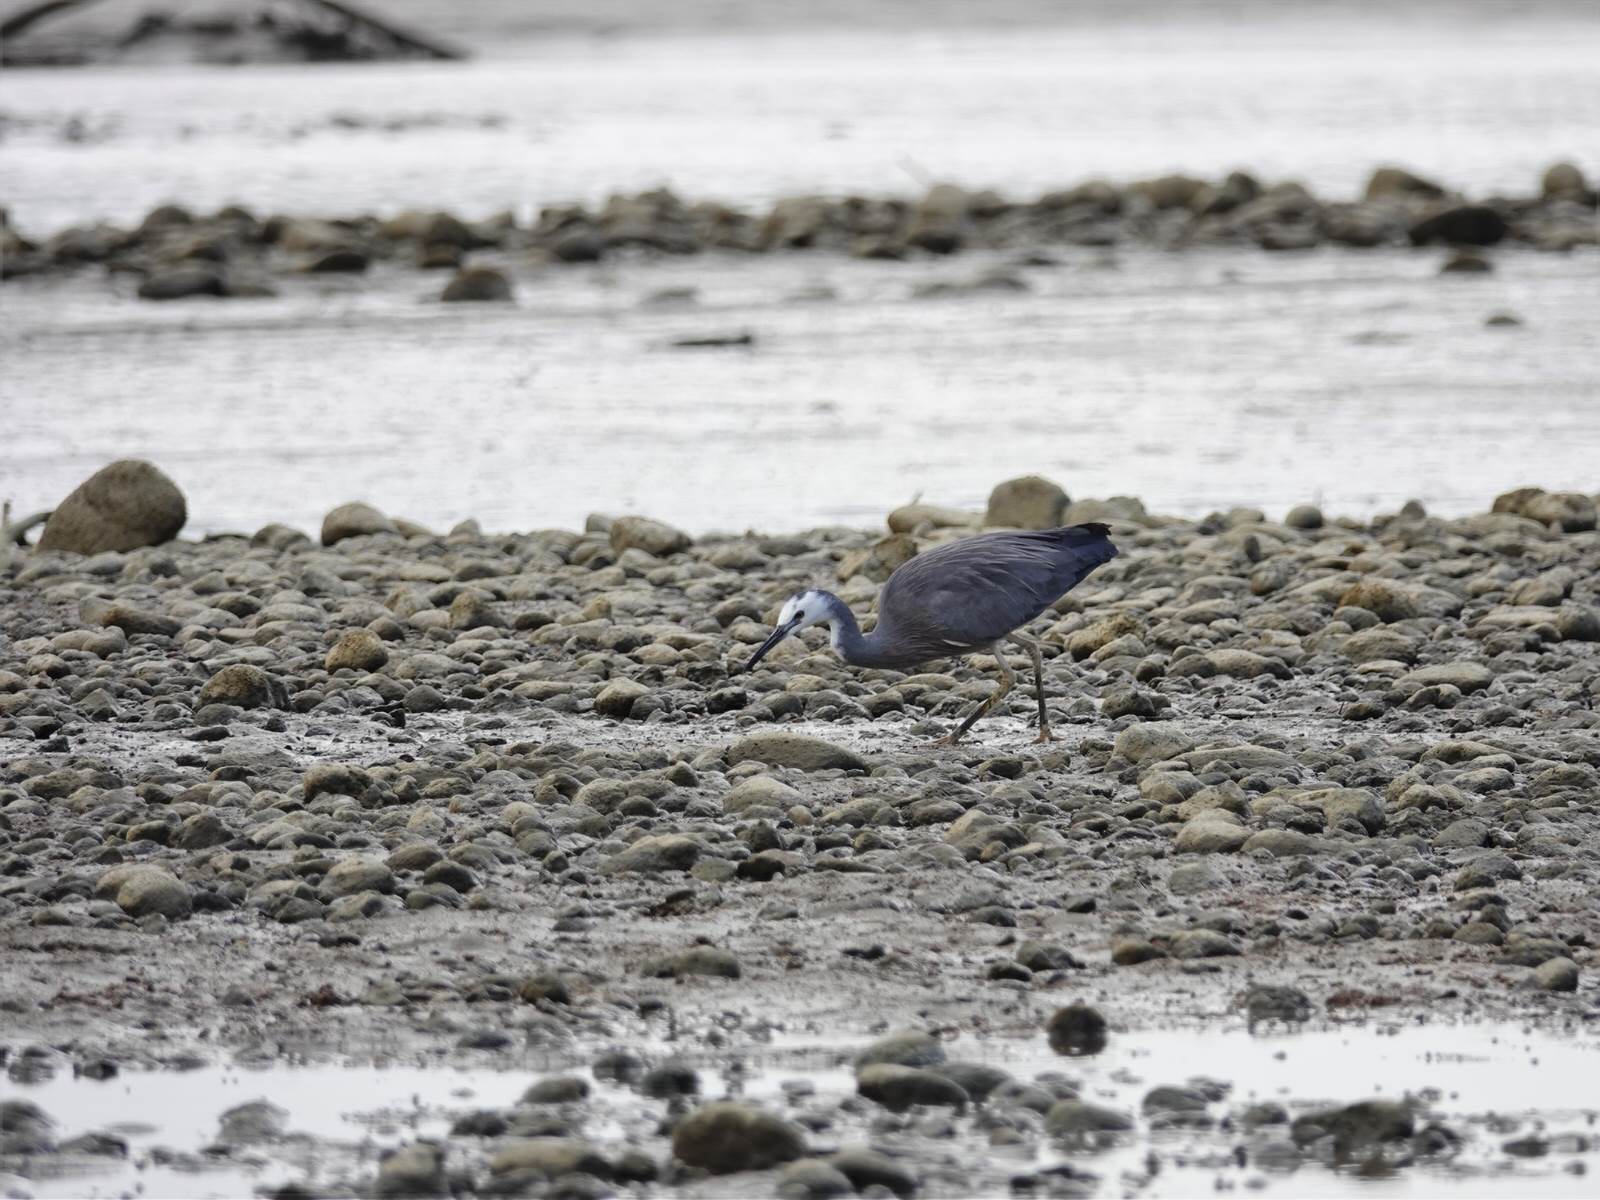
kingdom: Animalia
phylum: Chordata
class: Aves
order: Pelecaniformes
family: Ardeidae
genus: Egretta
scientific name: Egretta novaehollandiae
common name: White-faced heron
